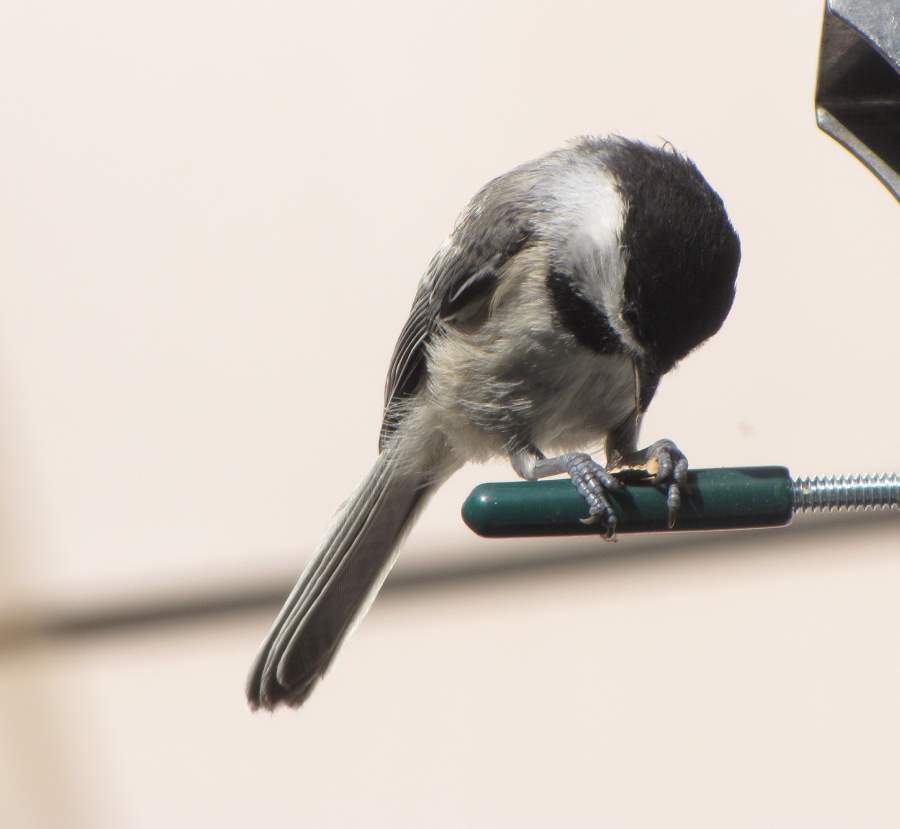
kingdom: Animalia
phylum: Chordata
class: Aves
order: Passeriformes
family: Paridae
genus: Poecile
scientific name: Poecile atricapillus
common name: Black-capped chickadee
